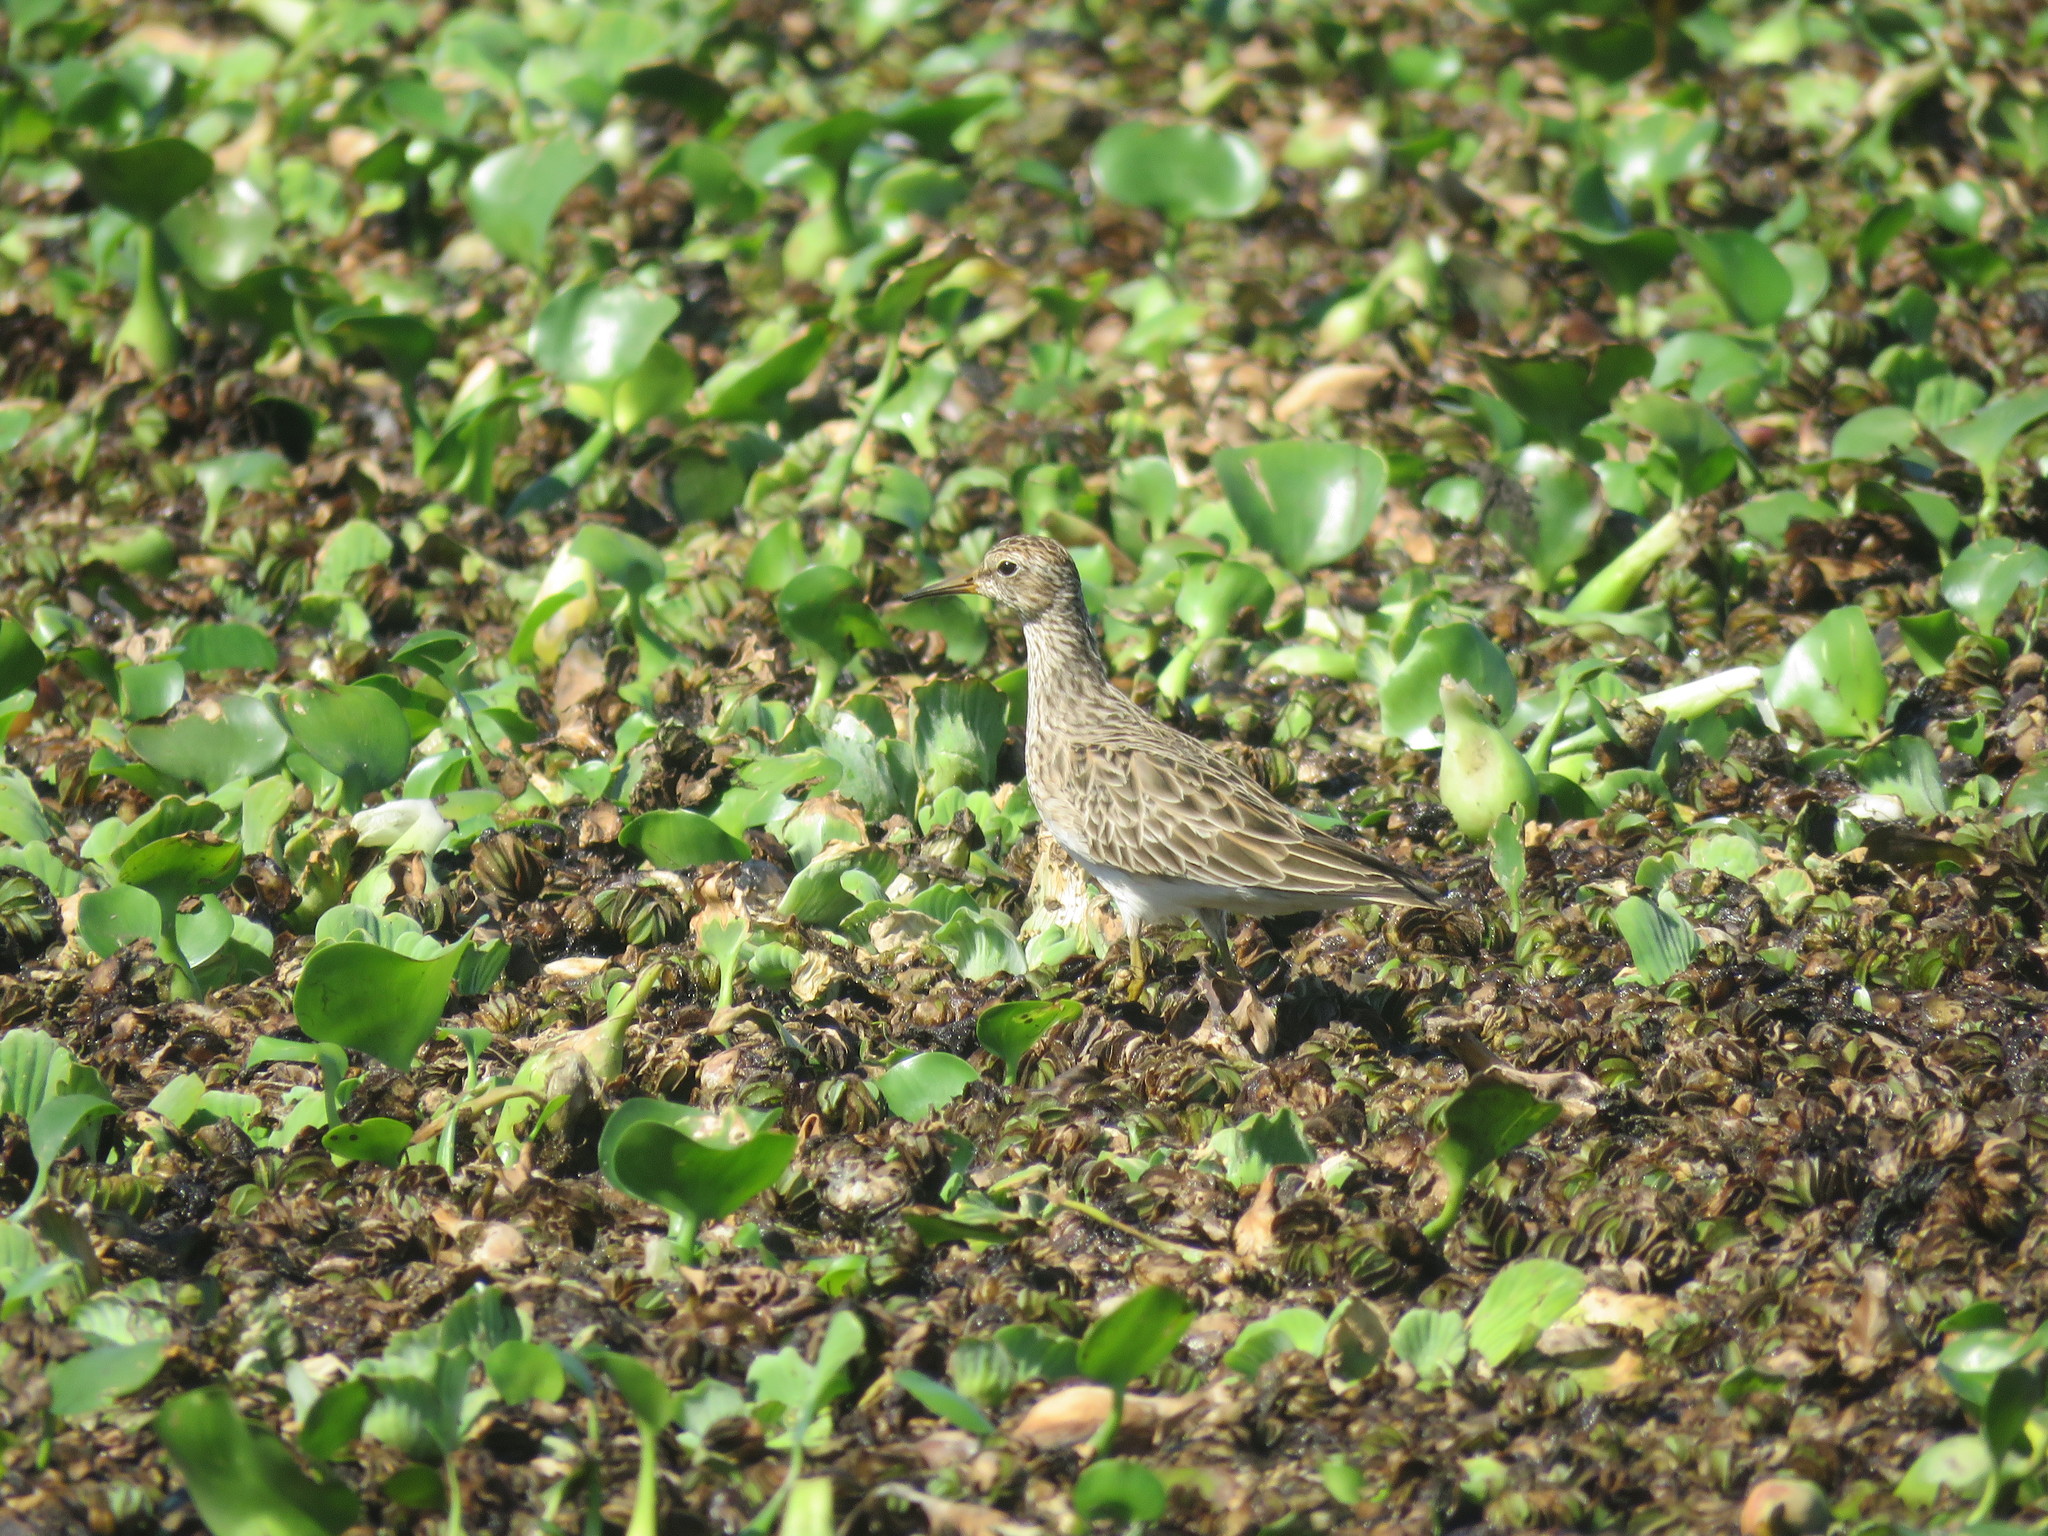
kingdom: Animalia
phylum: Chordata
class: Aves
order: Charadriiformes
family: Scolopacidae
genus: Calidris
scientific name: Calidris melanotos
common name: Pectoral sandpiper
